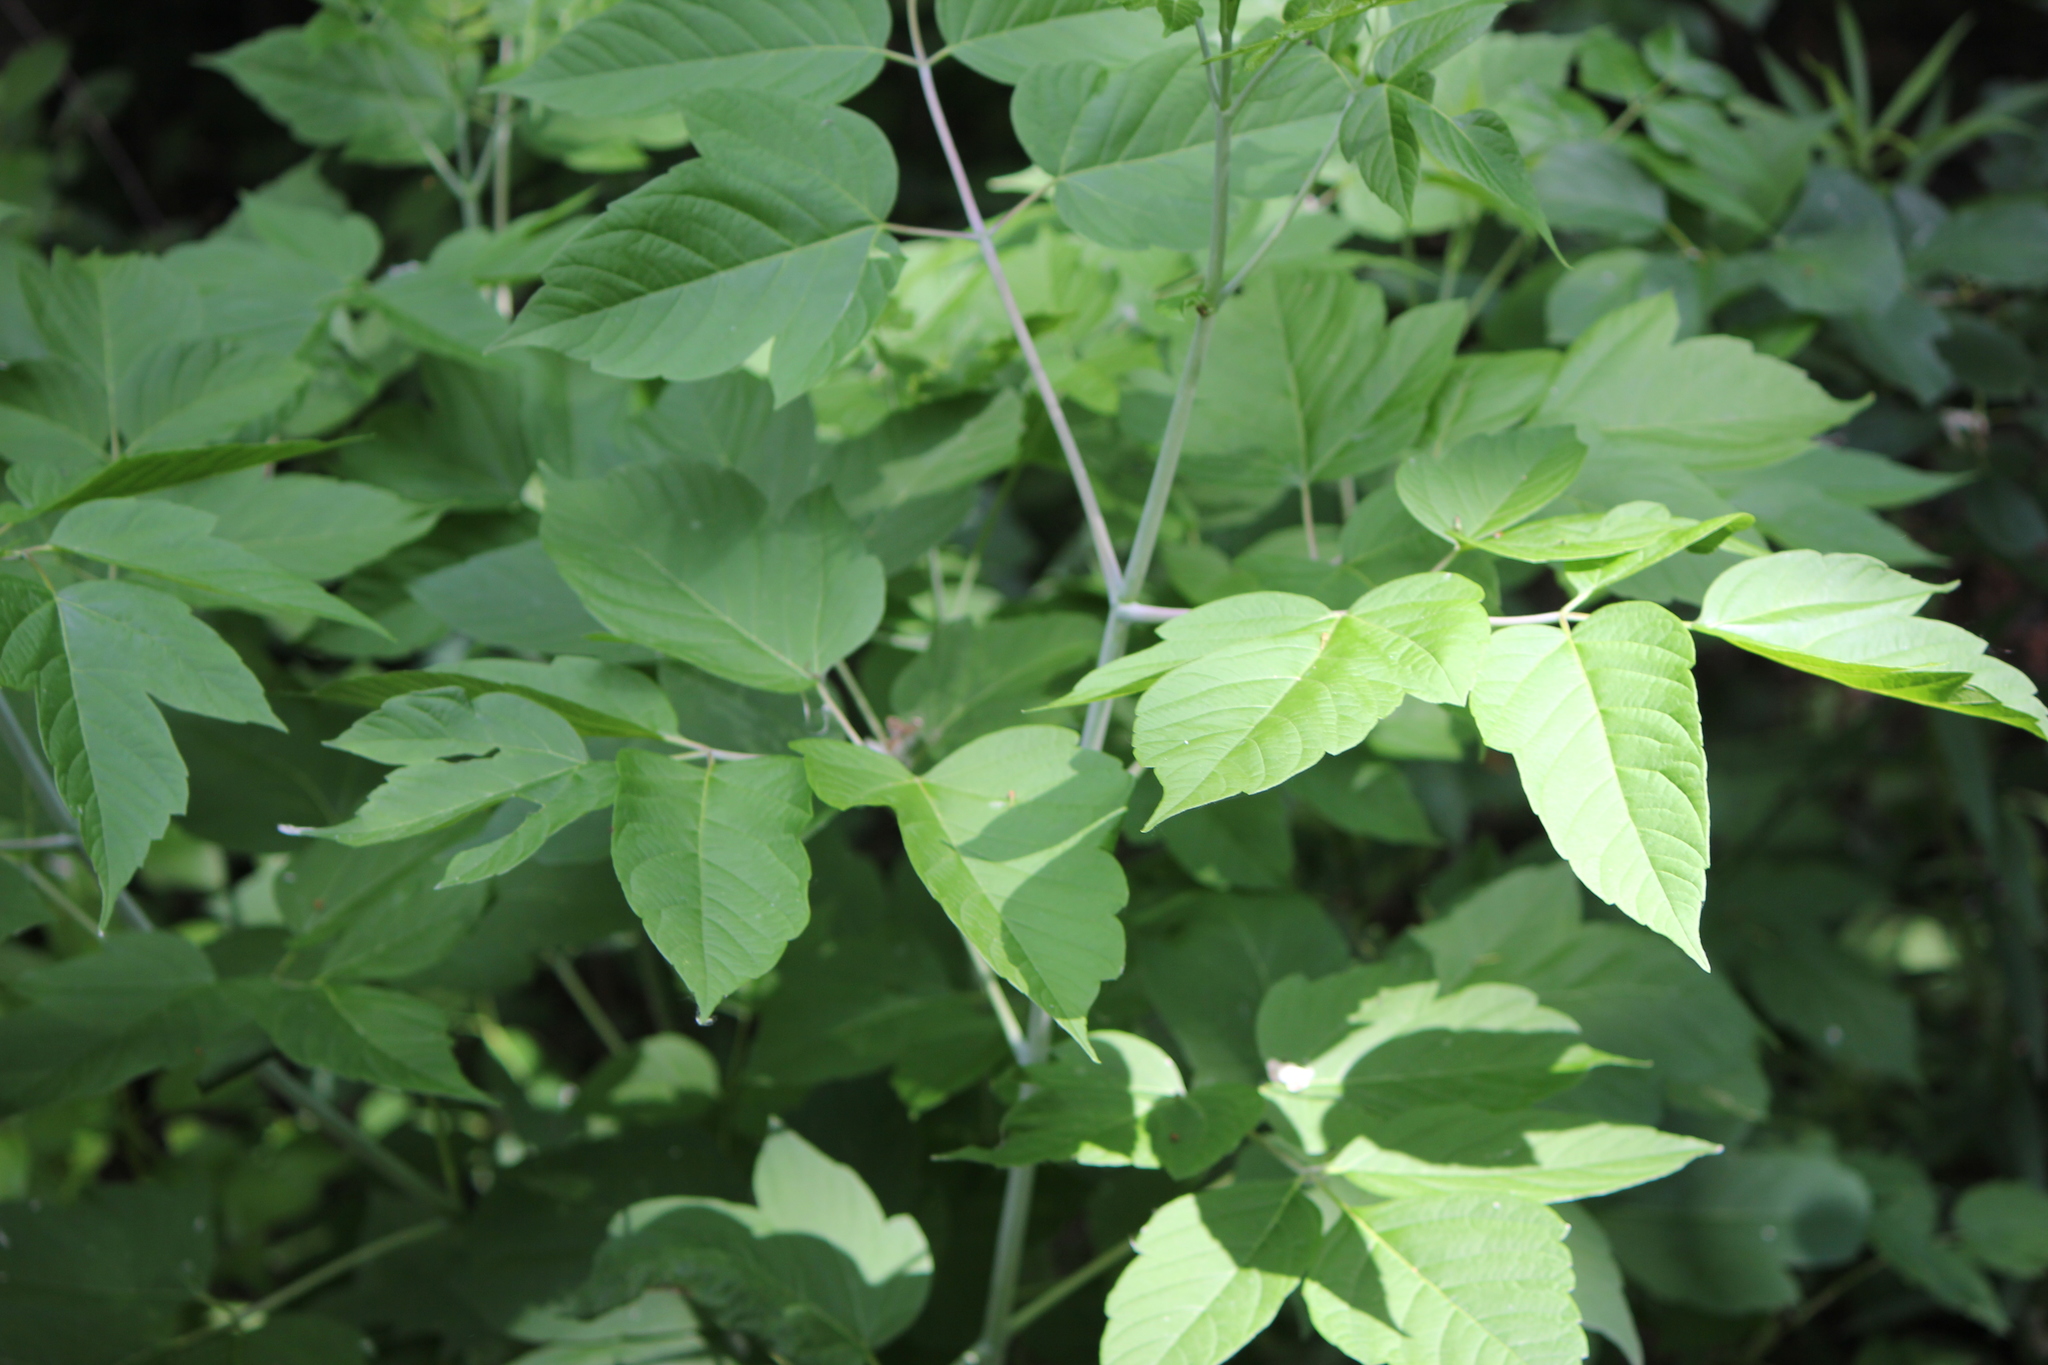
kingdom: Plantae
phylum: Tracheophyta
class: Magnoliopsida
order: Sapindales
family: Sapindaceae
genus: Acer
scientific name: Acer negundo
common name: Ashleaf maple
